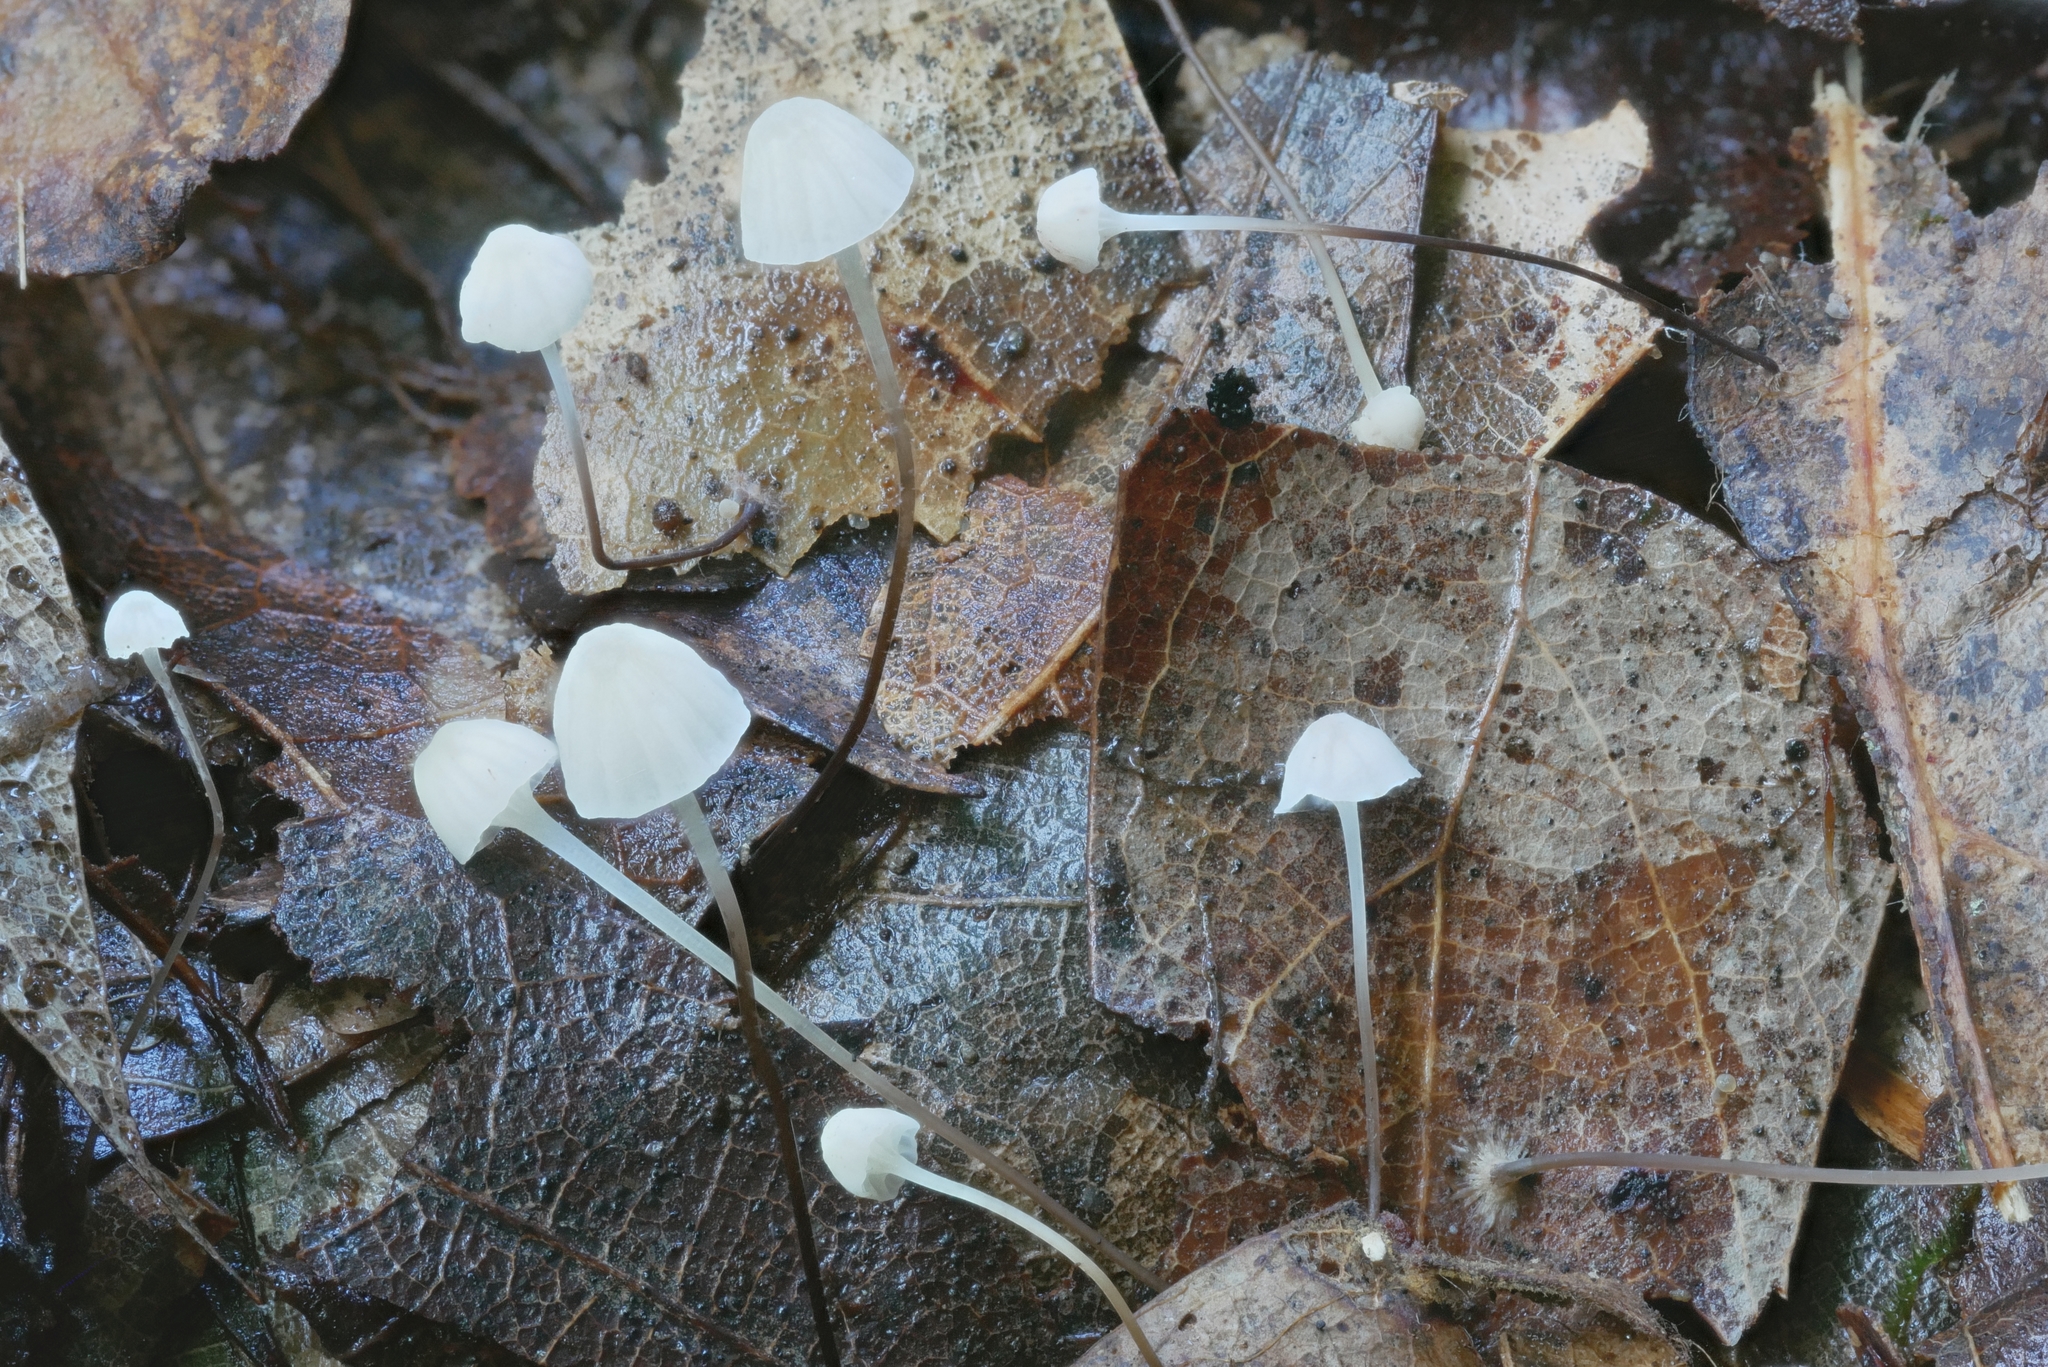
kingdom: Fungi
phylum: Basidiomycota
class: Agaricomycetes
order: Agaricales
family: Mycenaceae
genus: Mycena
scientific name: Mycena albiceps
